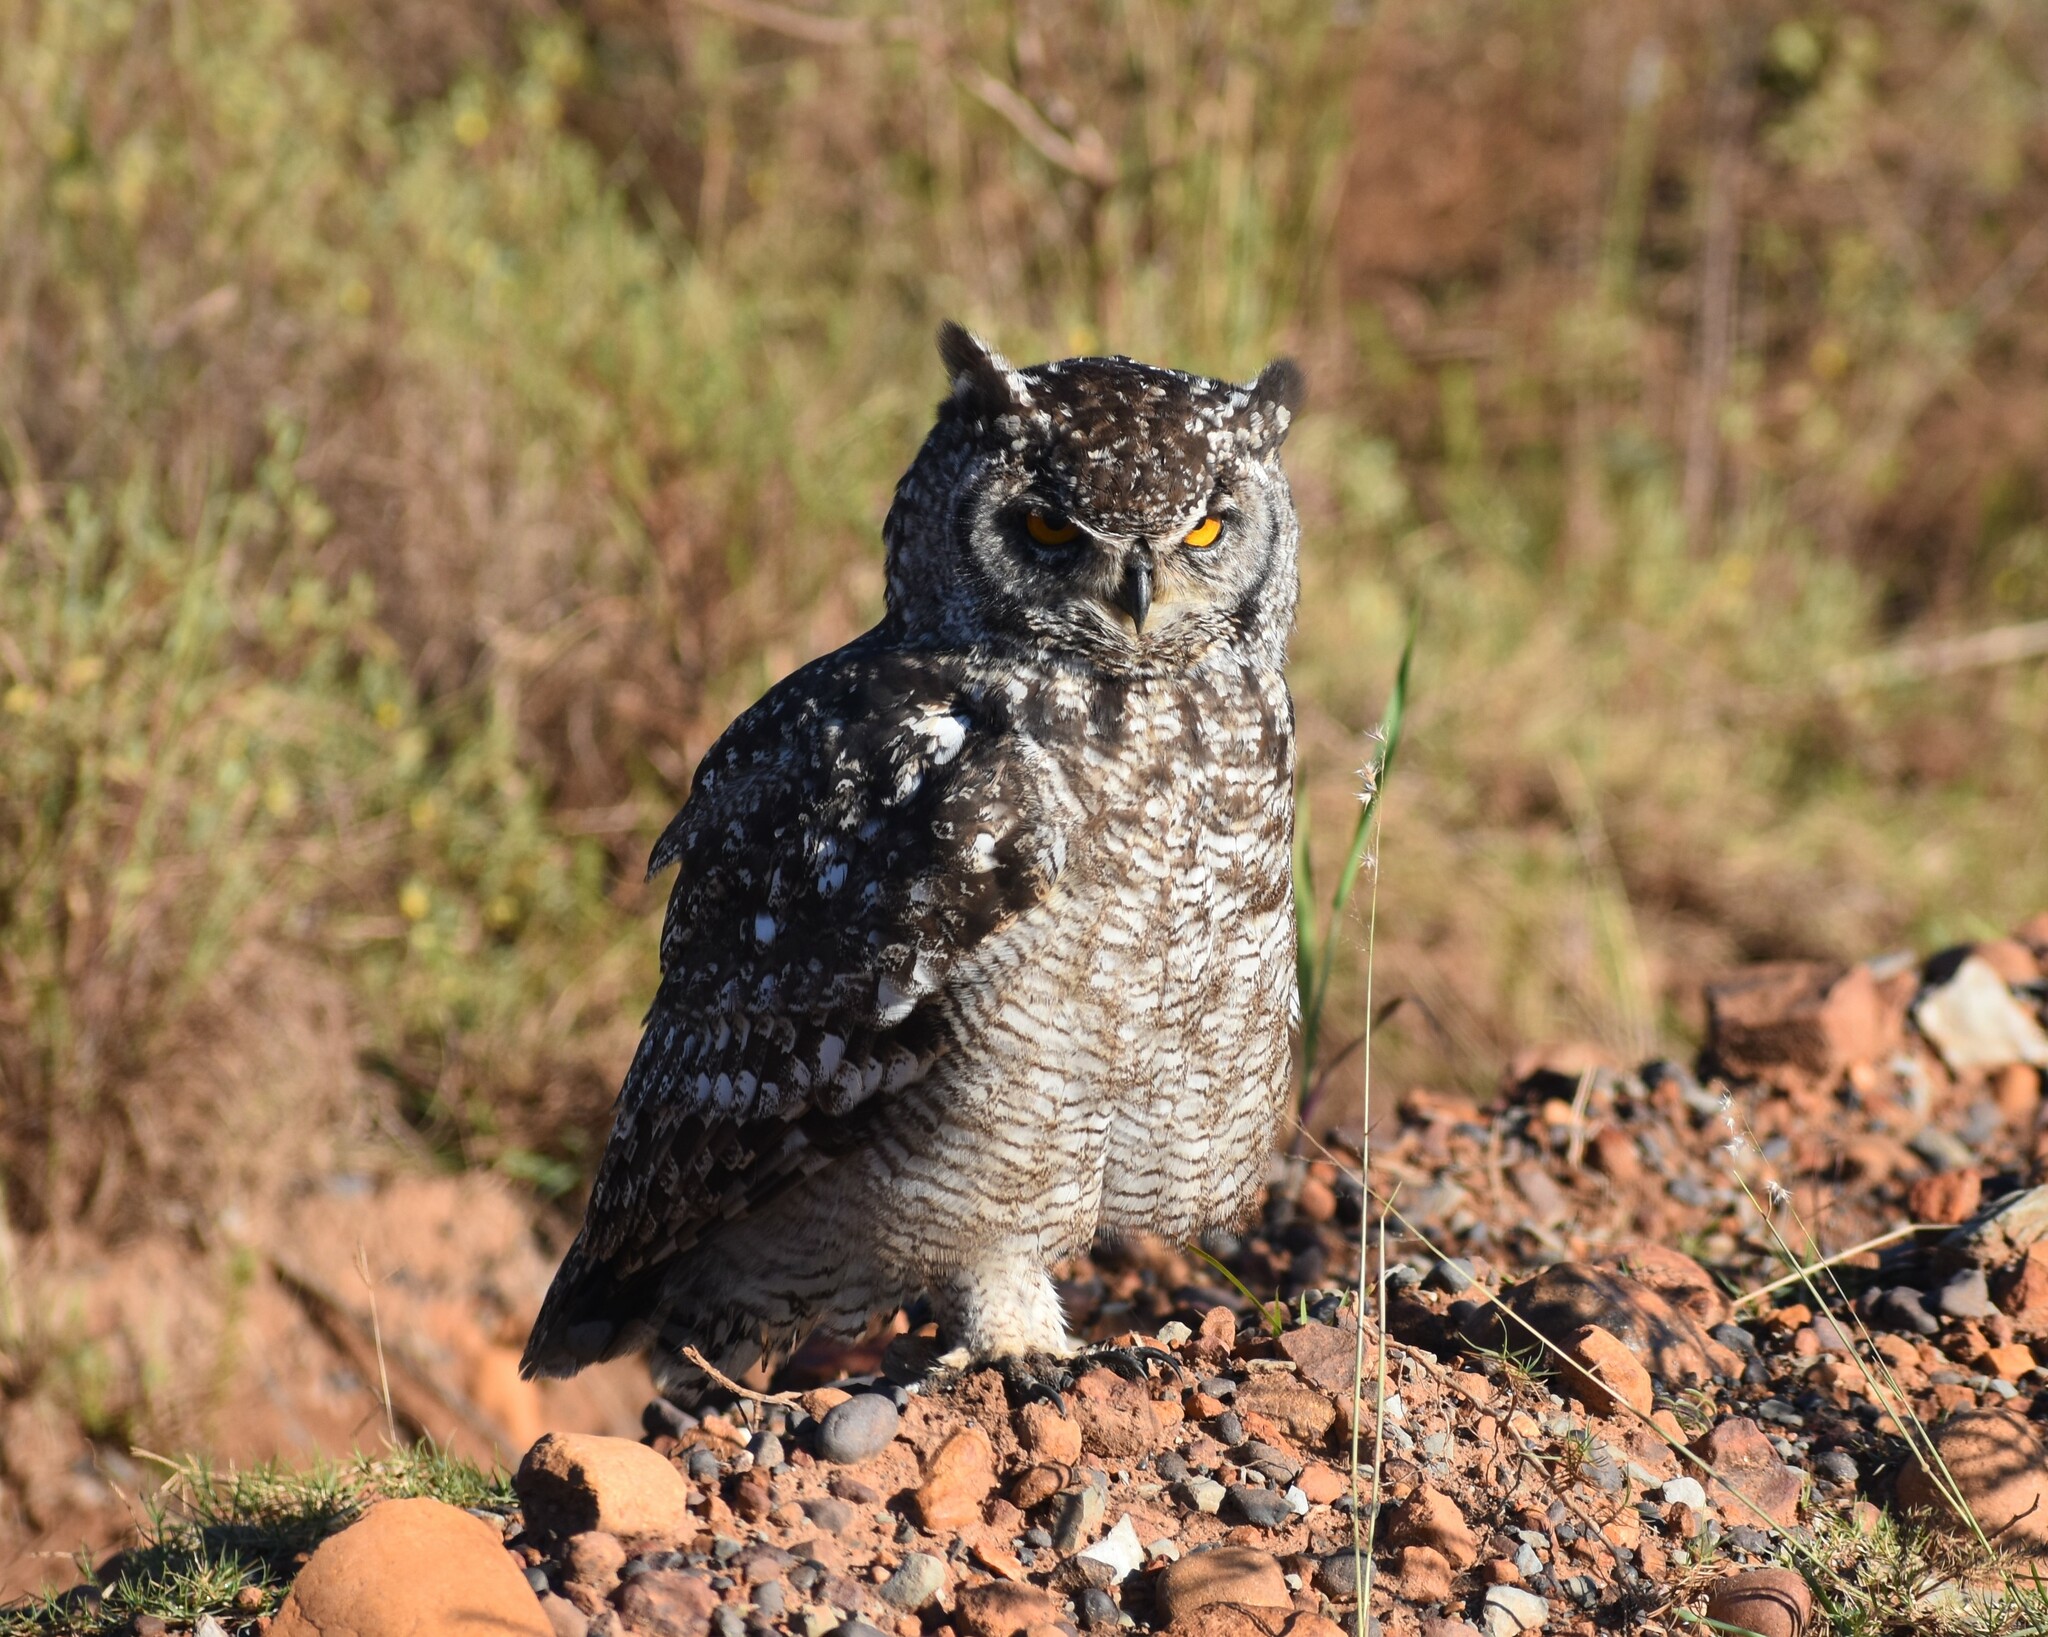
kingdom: Animalia
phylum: Chordata
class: Aves
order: Strigiformes
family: Strigidae
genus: Bubo
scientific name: Bubo africanus
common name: Spotted eagle-owl
